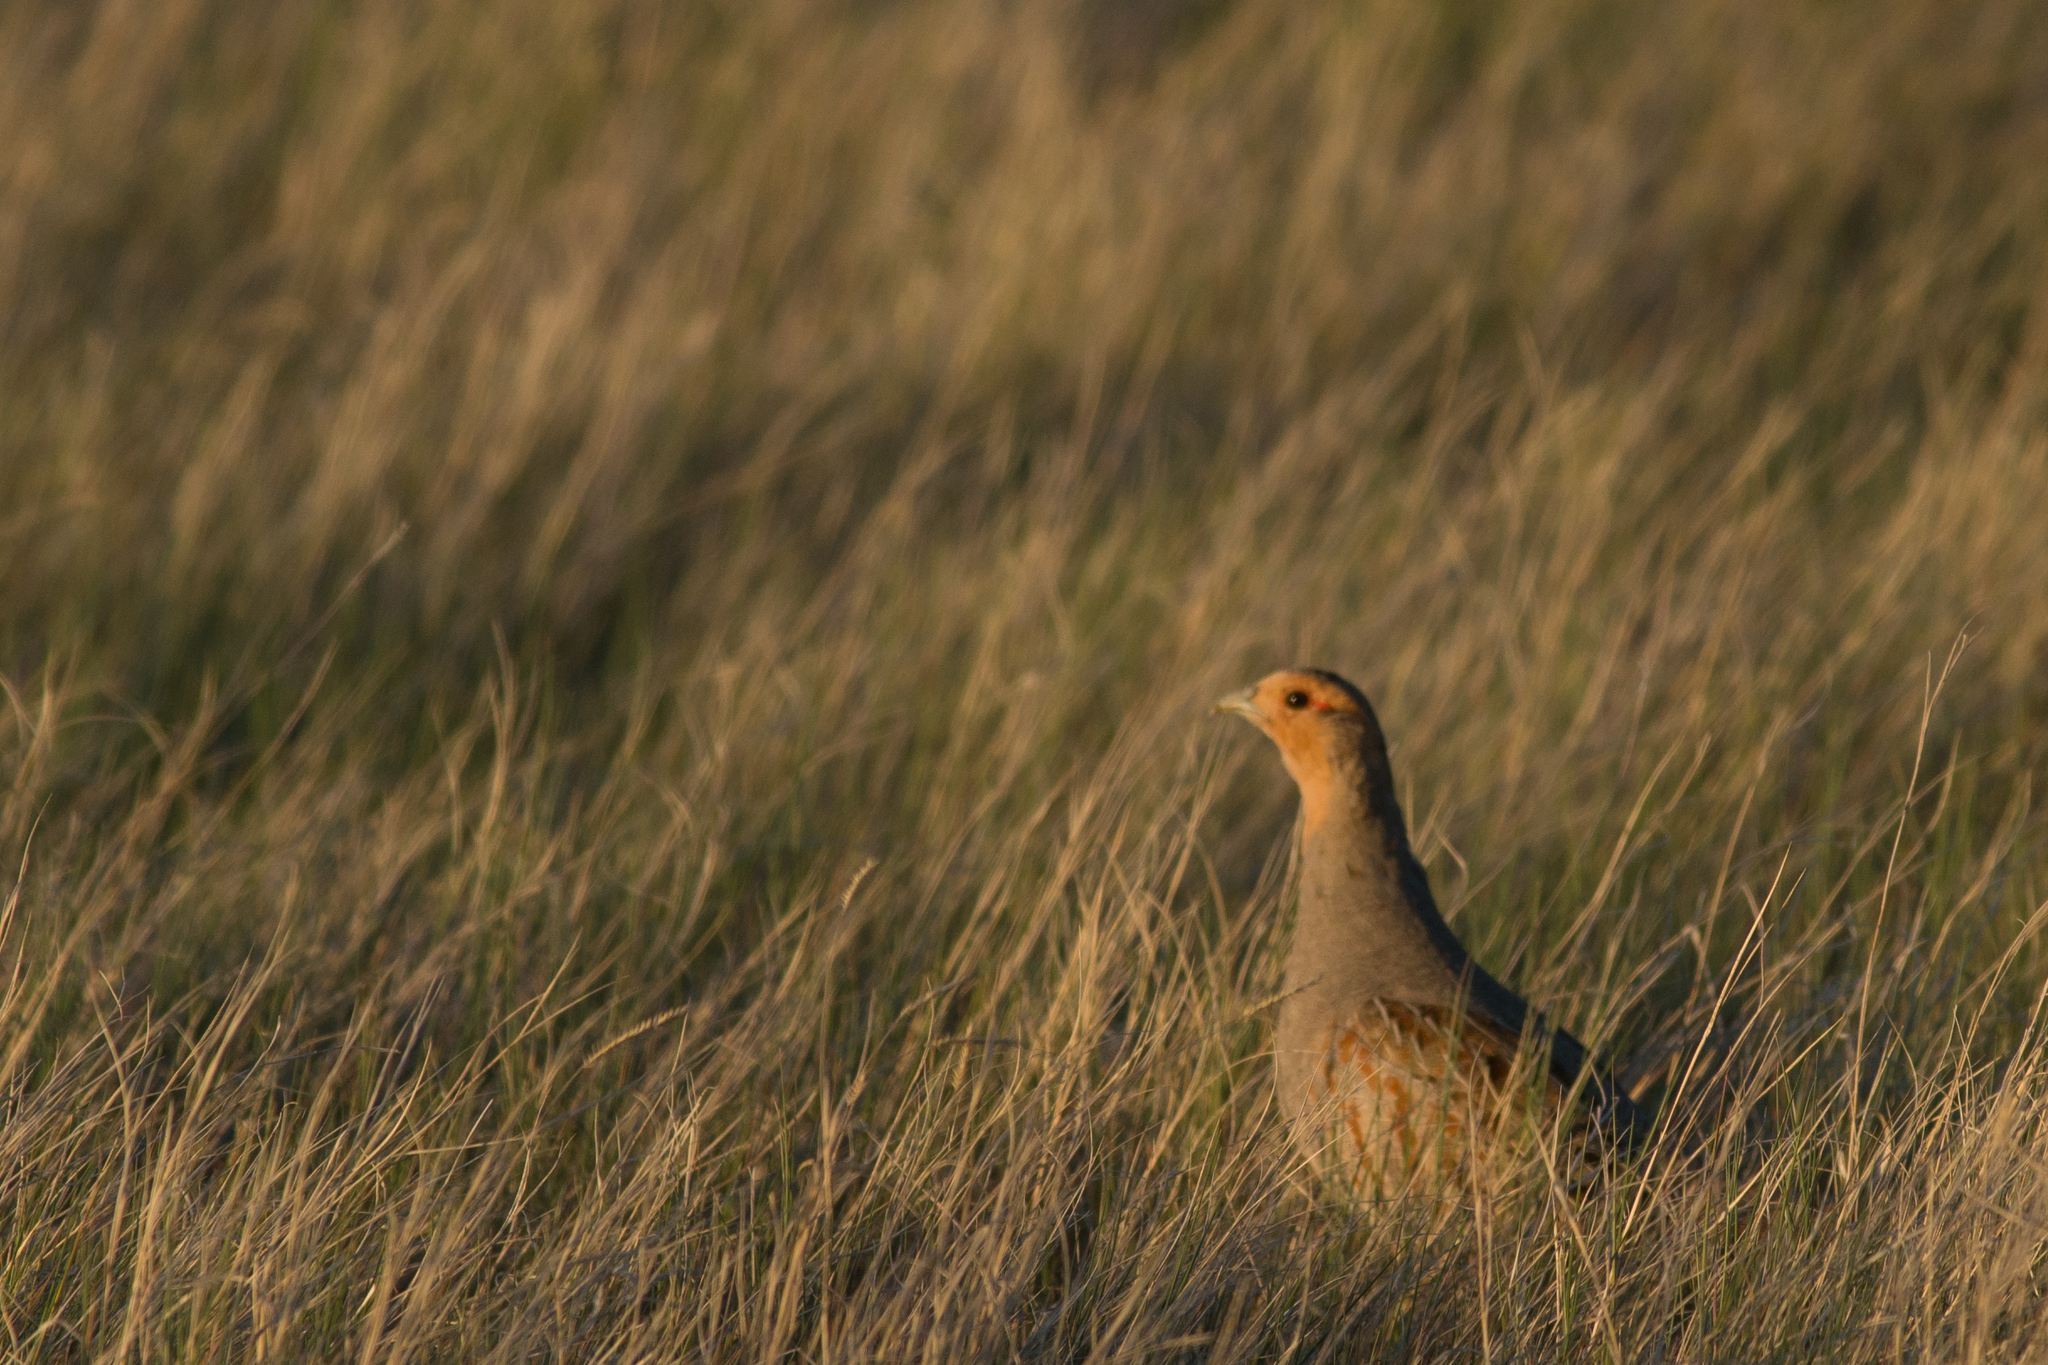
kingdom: Animalia
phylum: Chordata
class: Aves
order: Galliformes
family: Phasianidae
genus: Perdix
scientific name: Perdix perdix
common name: Grey partridge
